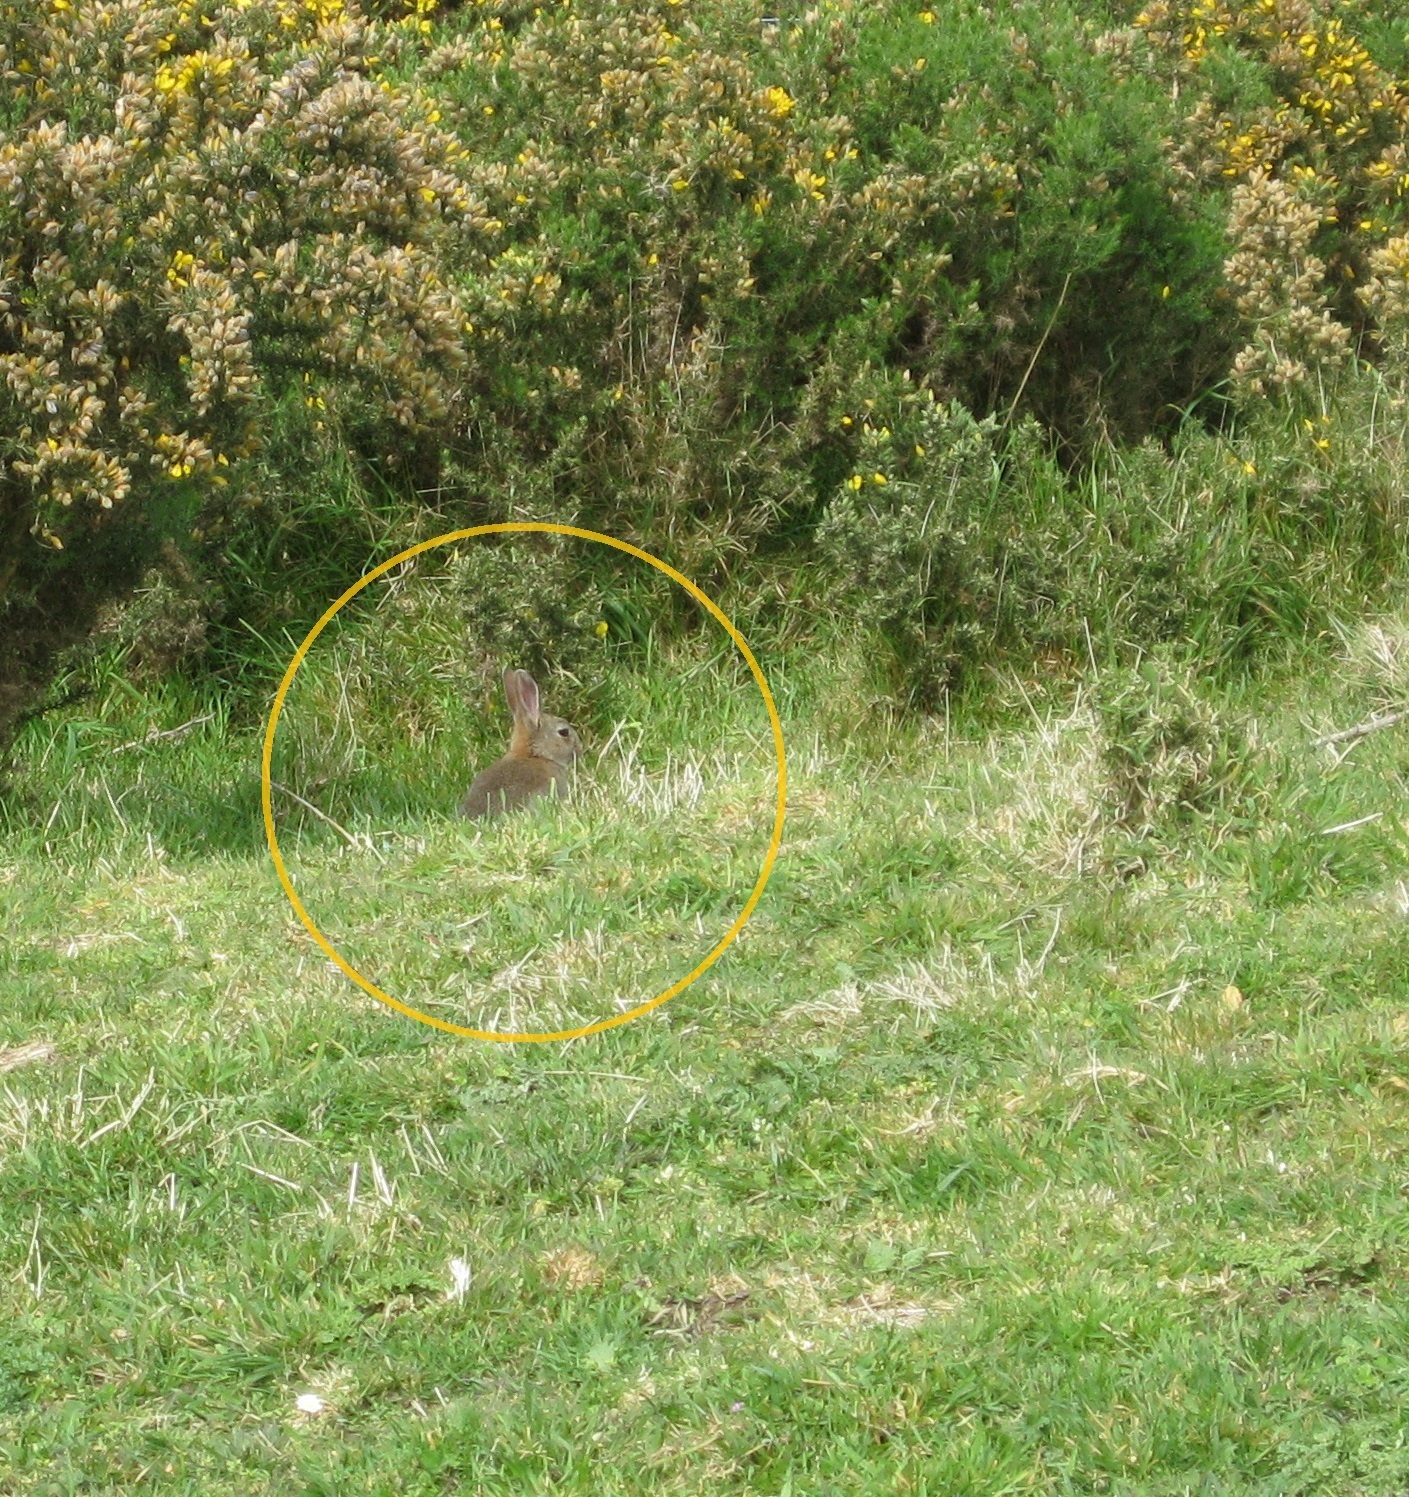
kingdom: Animalia
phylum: Chordata
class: Mammalia
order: Lagomorpha
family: Leporidae
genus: Oryctolagus
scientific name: Oryctolagus cuniculus
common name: European rabbit
